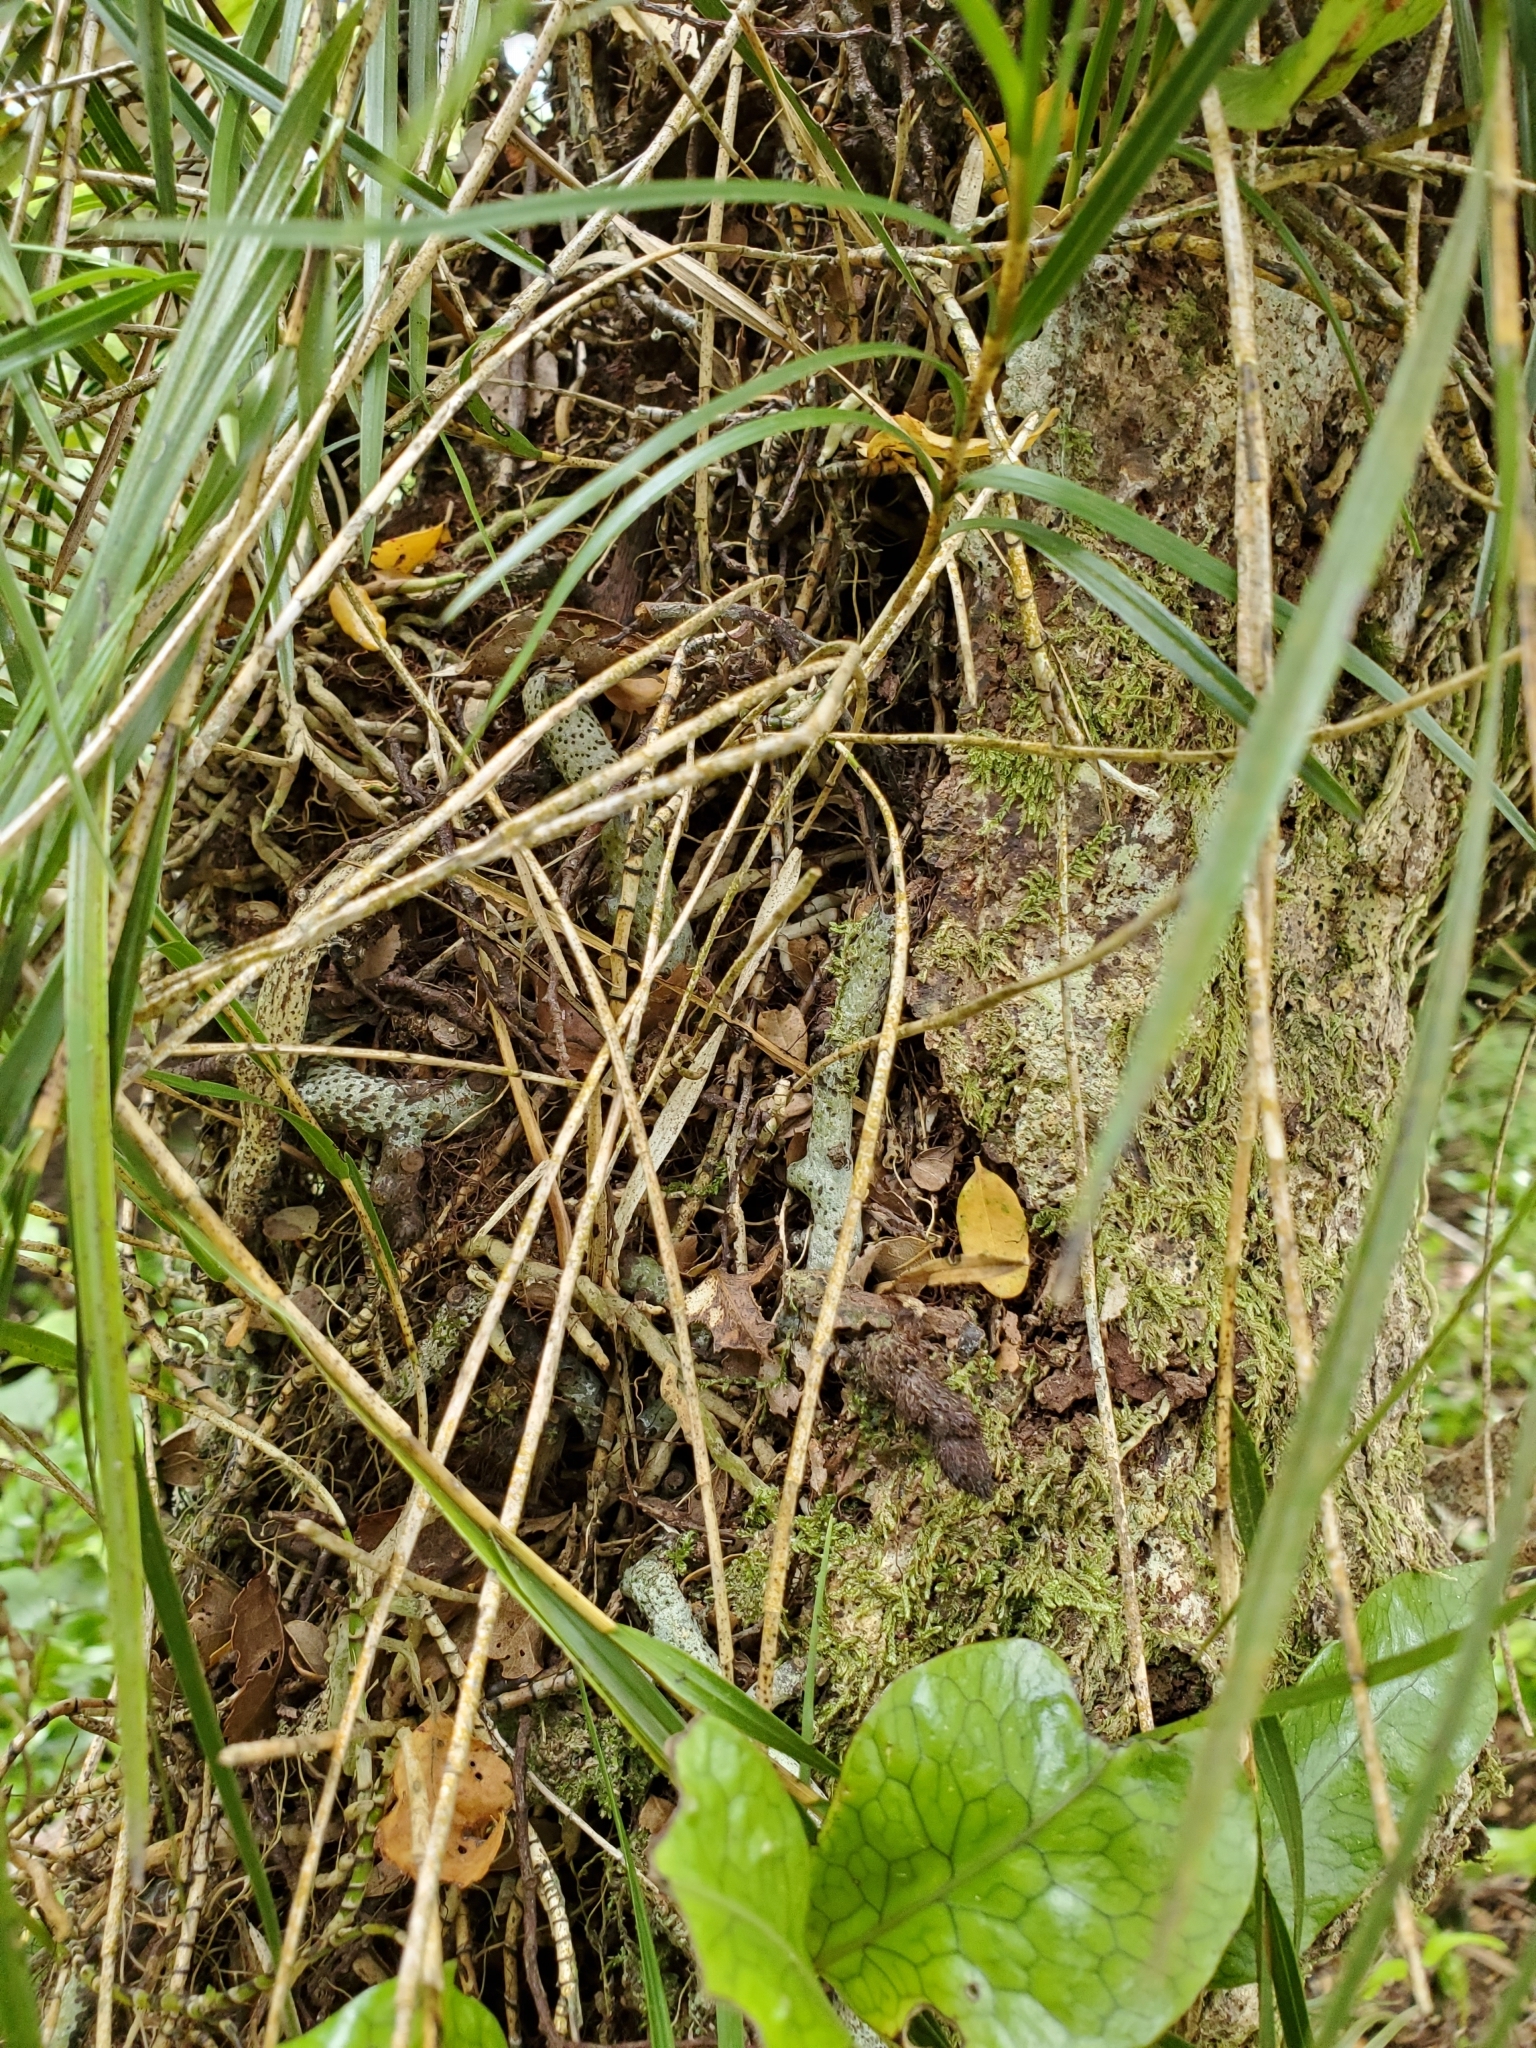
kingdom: Plantae
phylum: Tracheophyta
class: Liliopsida
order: Asparagales
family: Orchidaceae
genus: Earina
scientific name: Earina mucronata
